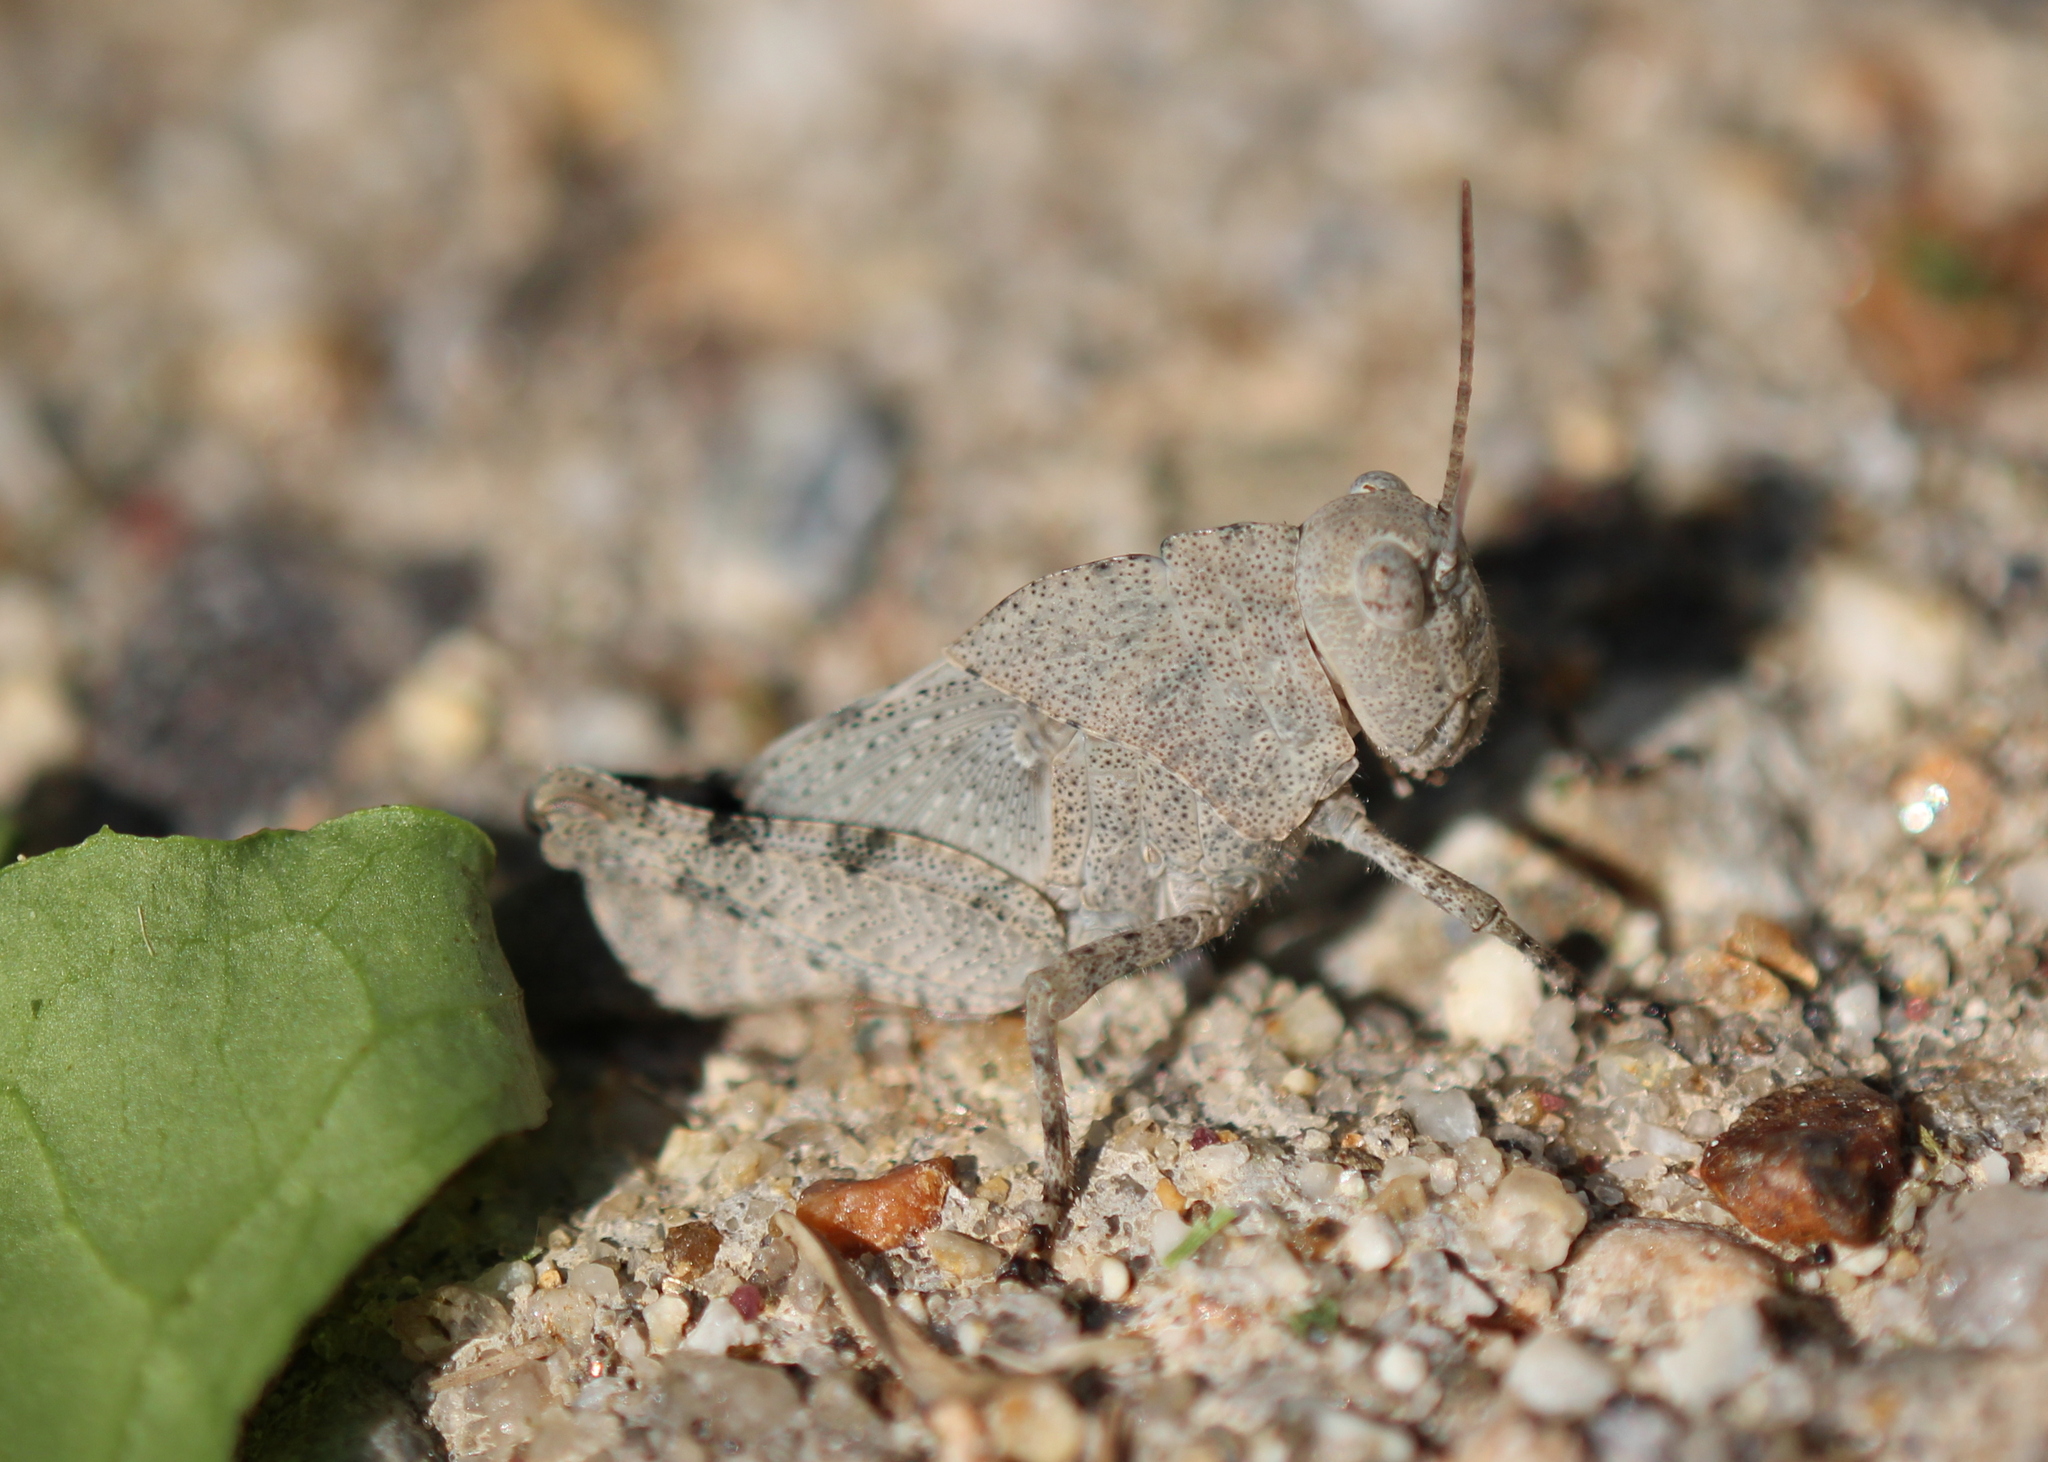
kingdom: Animalia
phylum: Arthropoda
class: Insecta
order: Orthoptera
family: Acrididae
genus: Dissosteira
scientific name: Dissosteira carolina
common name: Carolina grasshopper
